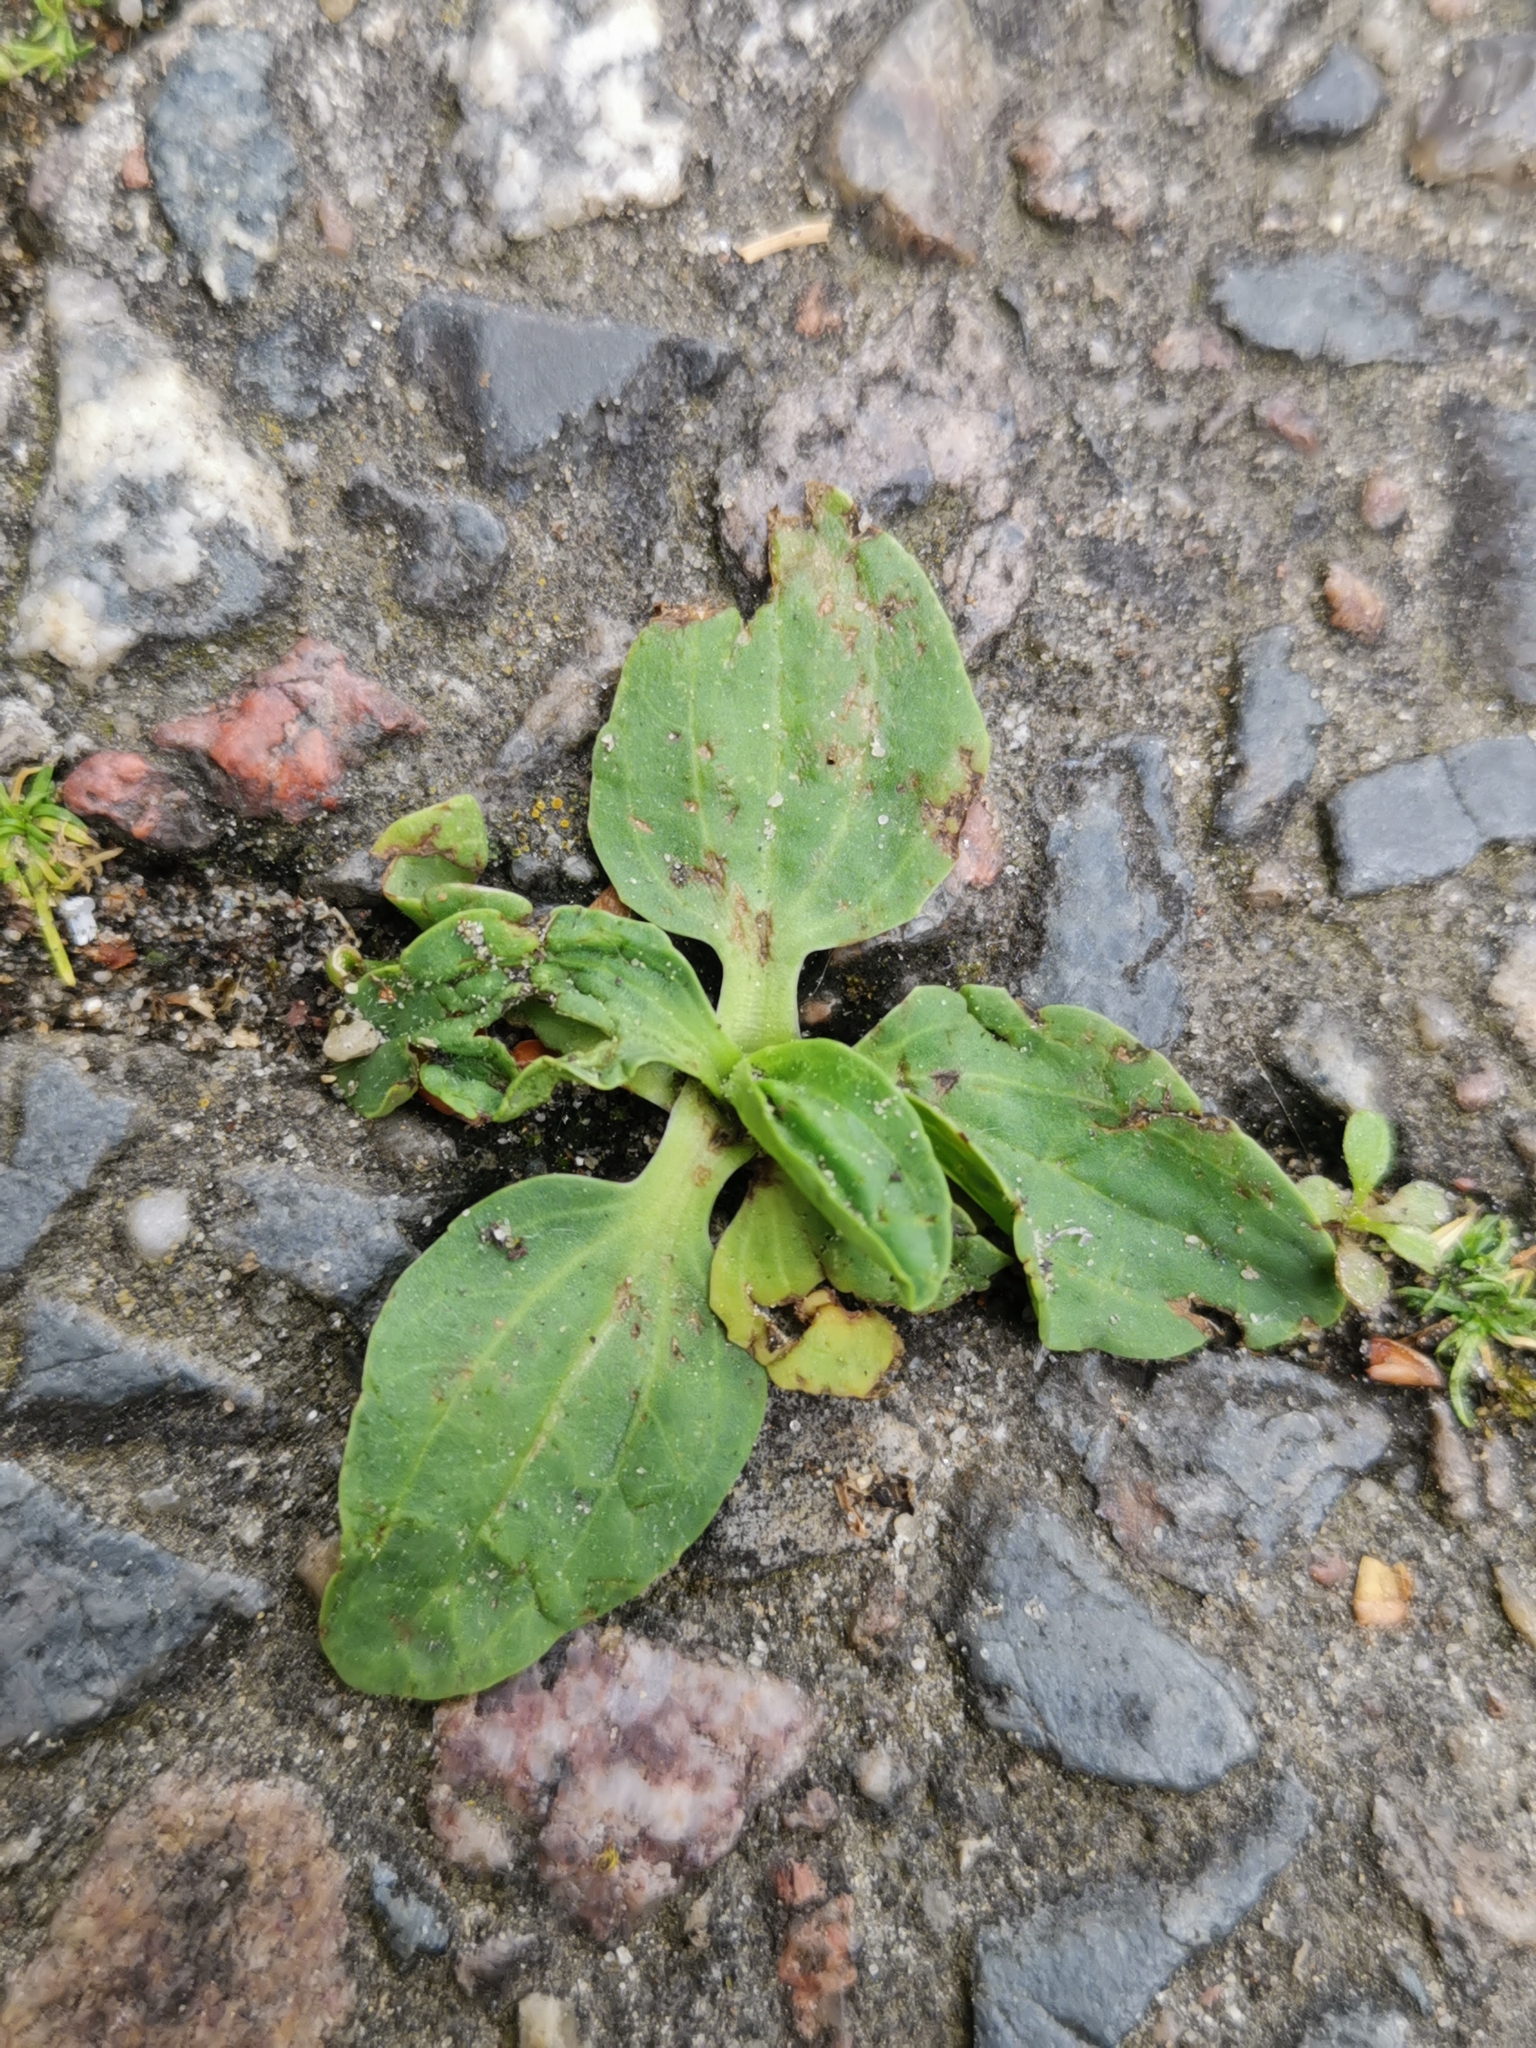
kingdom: Plantae
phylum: Tracheophyta
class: Magnoliopsida
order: Lamiales
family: Plantaginaceae
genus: Plantago
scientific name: Plantago major
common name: Common plantain
